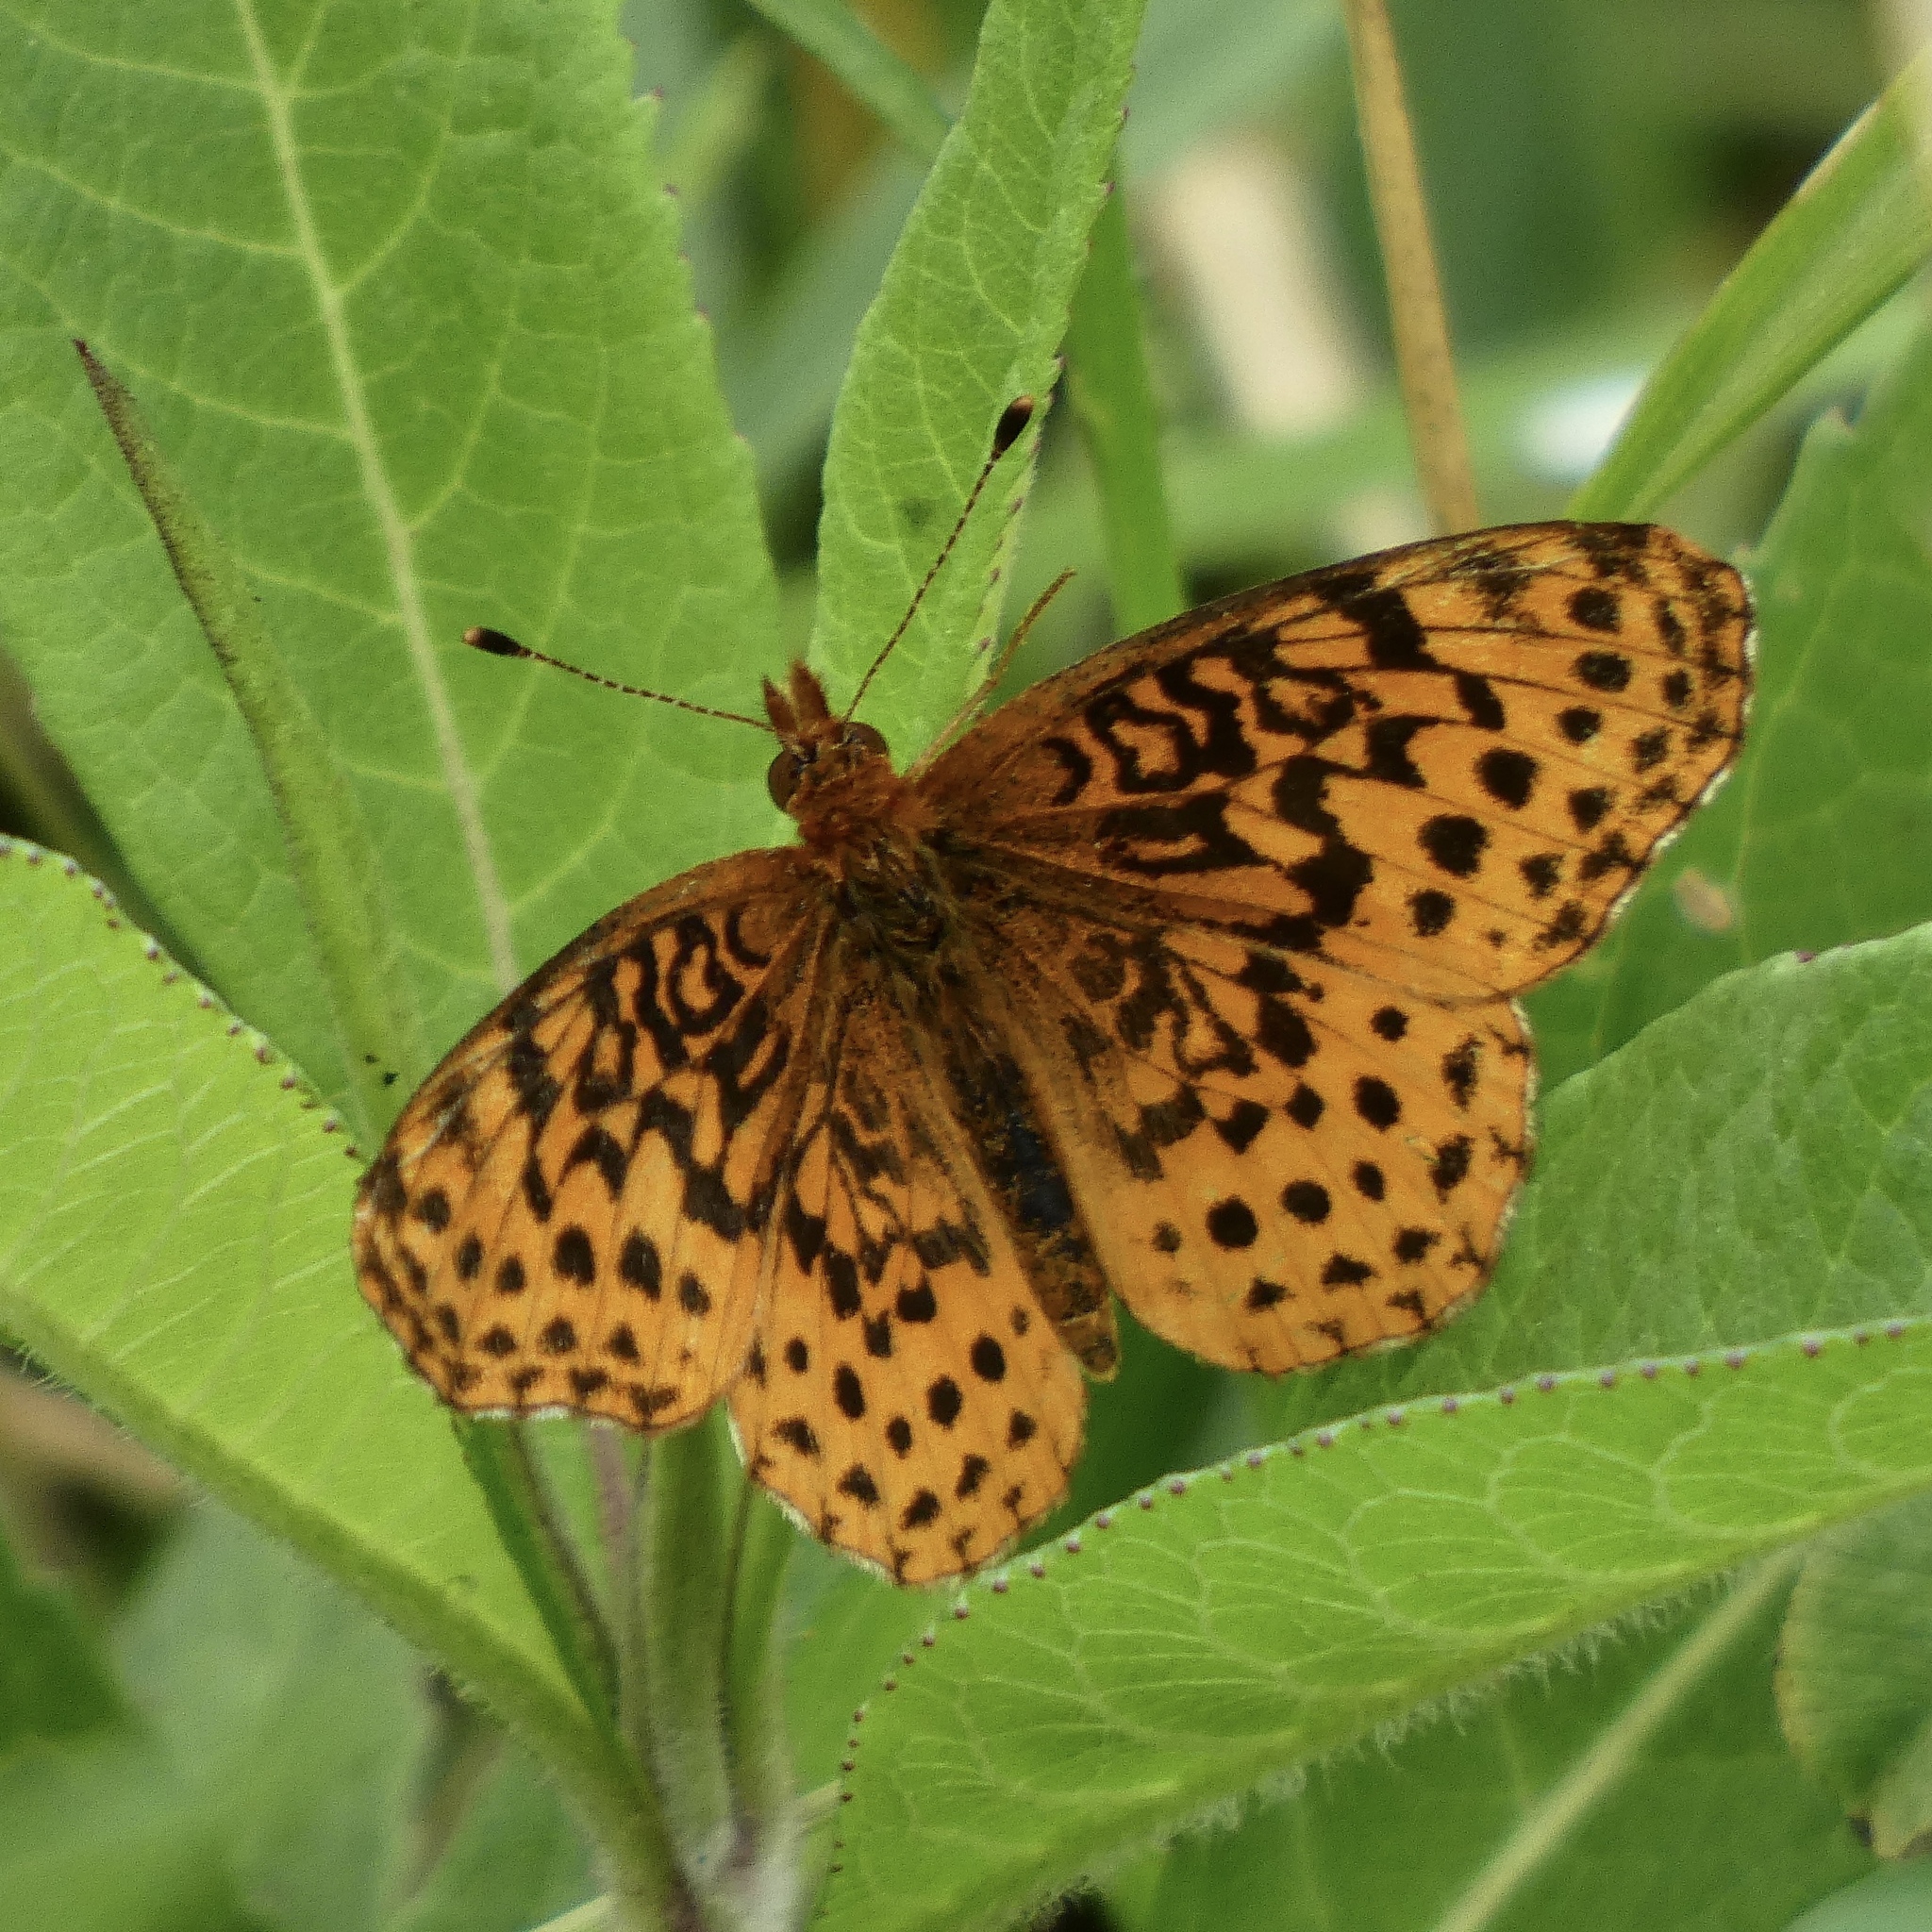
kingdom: Animalia
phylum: Arthropoda
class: Insecta
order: Lepidoptera
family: Nymphalidae
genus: Clossiana
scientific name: Clossiana toddi
